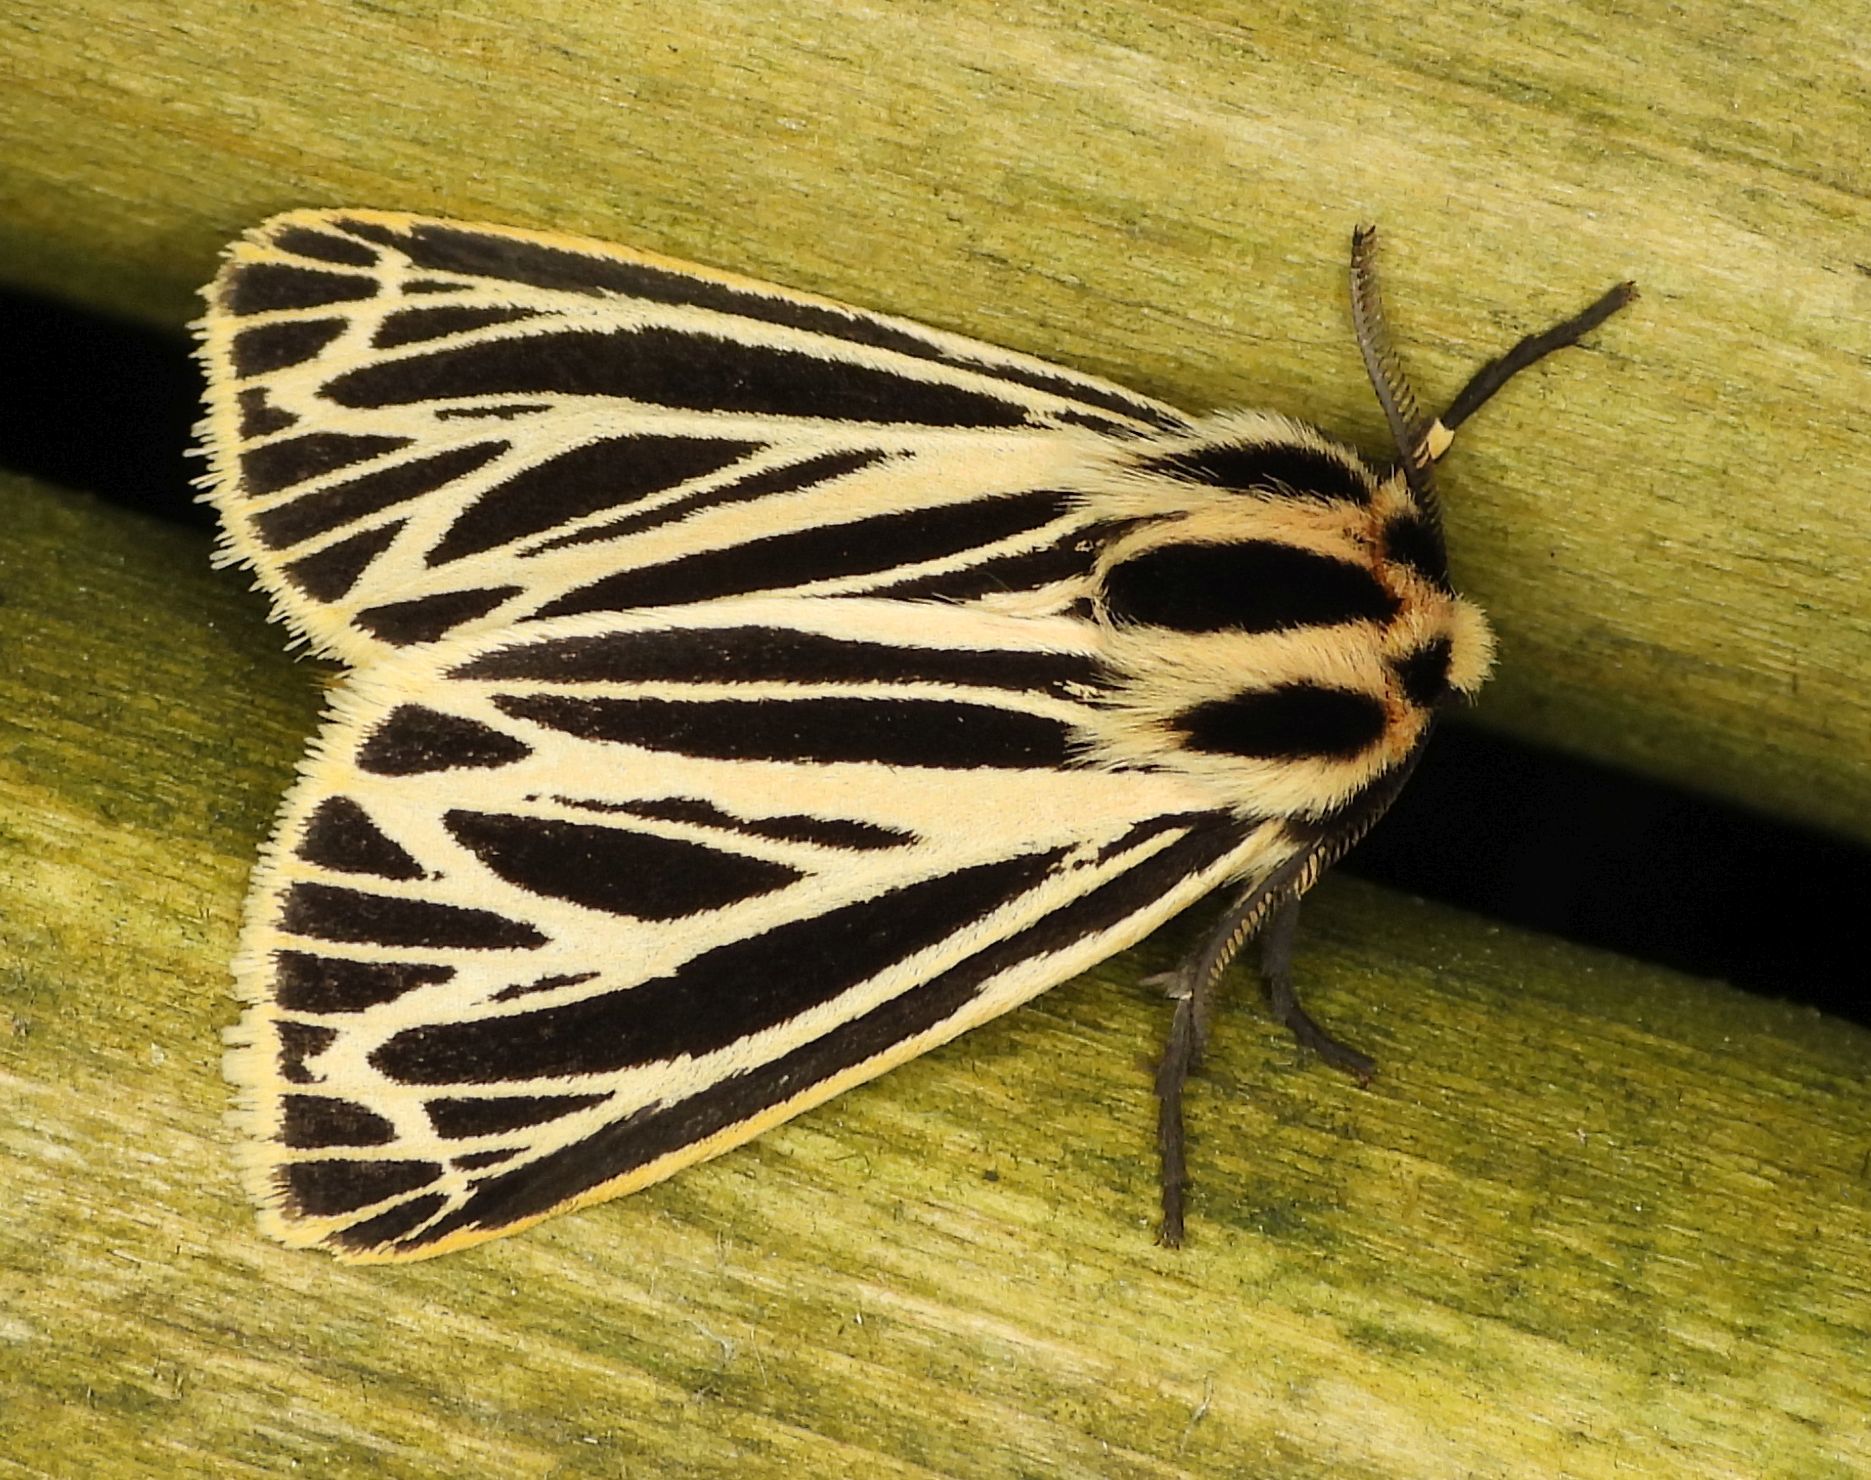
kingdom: Animalia
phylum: Arthropoda
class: Insecta
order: Lepidoptera
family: Erebidae
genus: Grammia
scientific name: Grammia virguncula
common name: Little tiger moth
